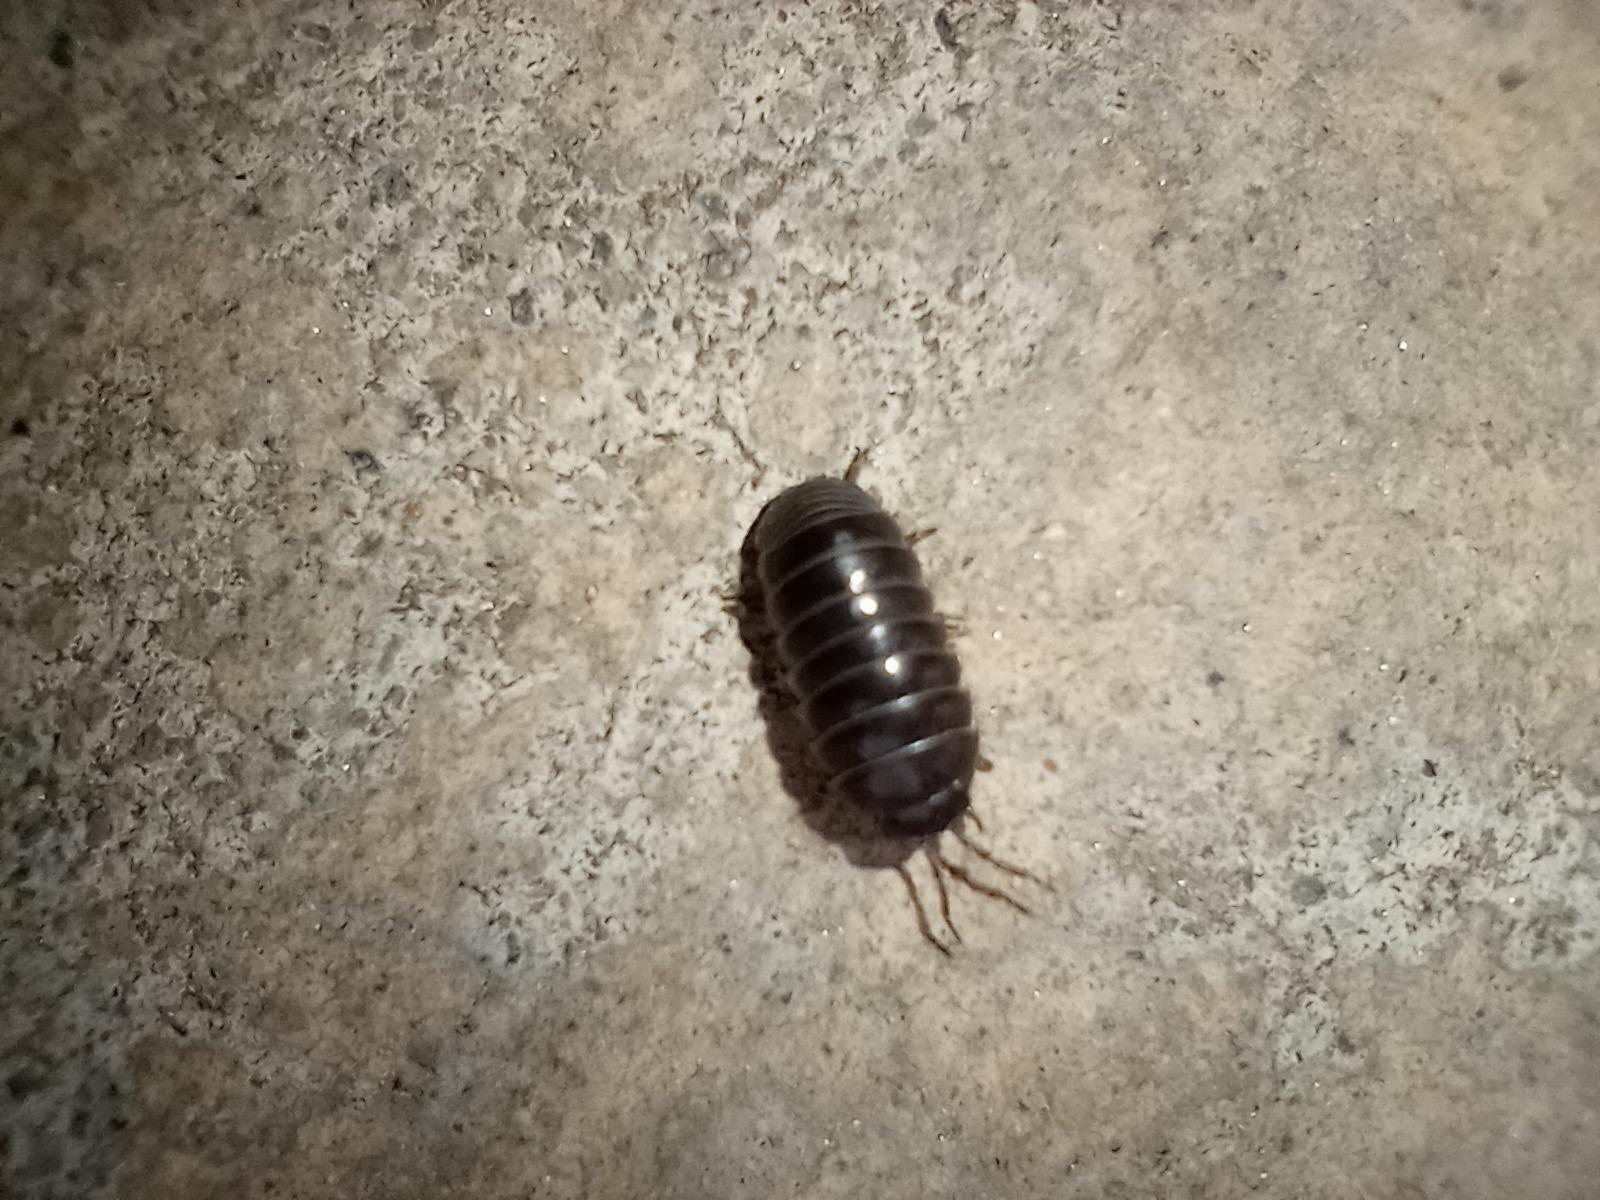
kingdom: Animalia
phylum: Arthropoda
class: Malacostraca
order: Isopoda
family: Armadillidiidae
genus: Armadillidium
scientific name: Armadillidium vulgare
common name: Common pill woodlouse
